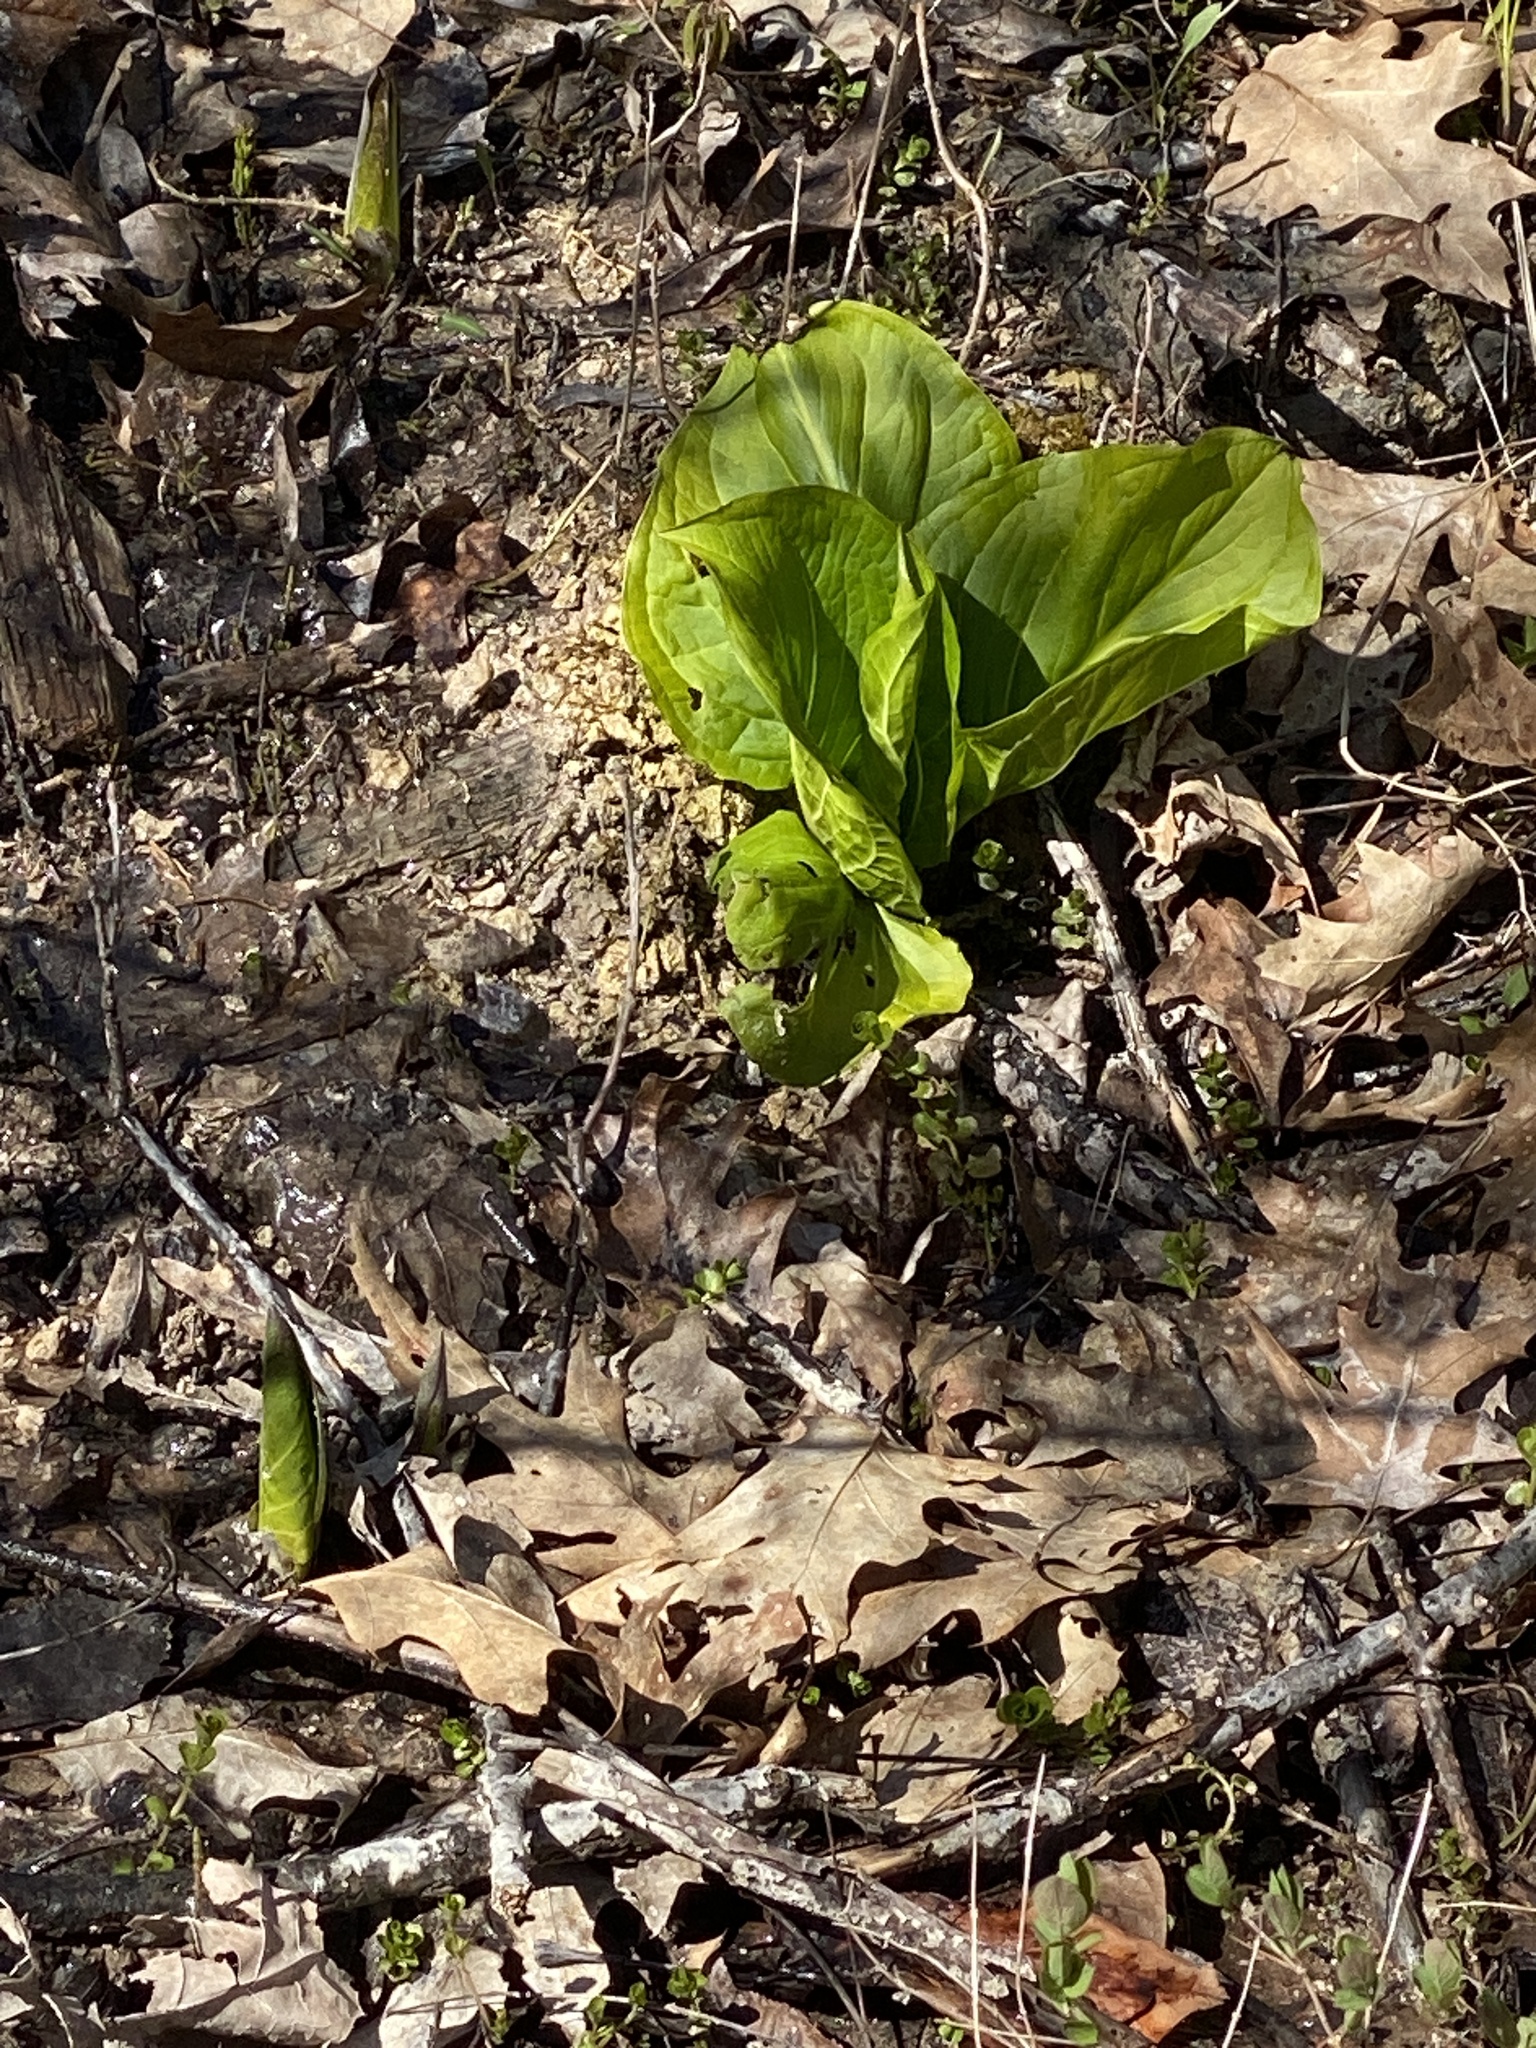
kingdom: Plantae
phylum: Tracheophyta
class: Liliopsida
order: Alismatales
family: Araceae
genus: Symplocarpus
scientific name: Symplocarpus foetidus
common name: Eastern skunk cabbage
